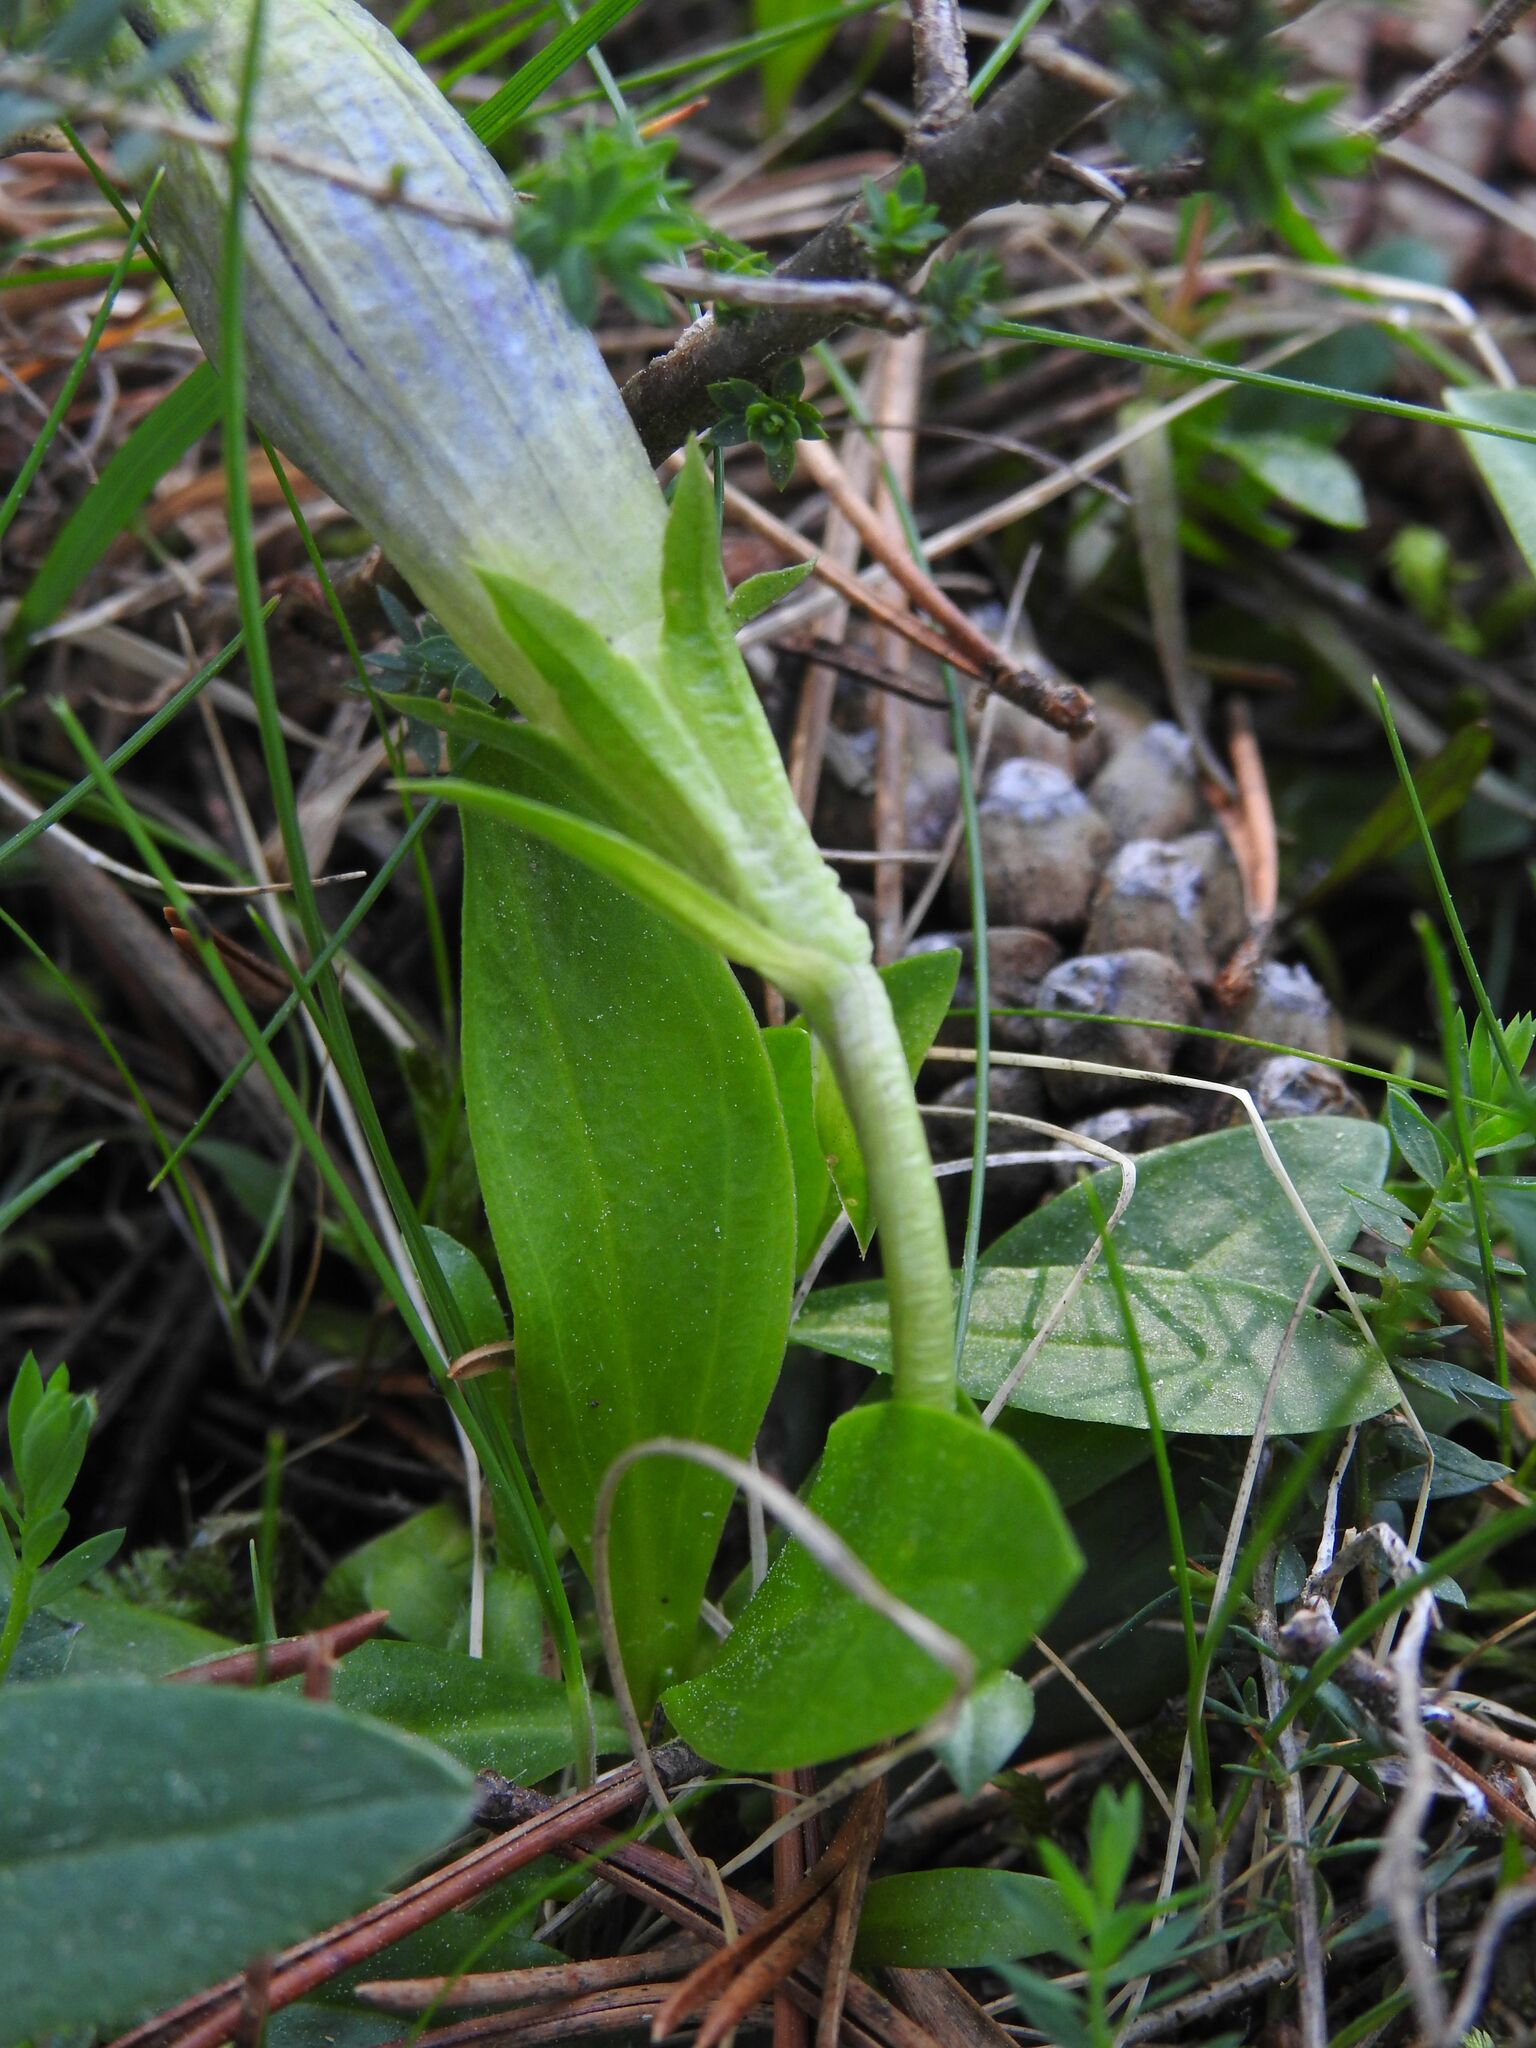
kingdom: Plantae
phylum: Tracheophyta
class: Magnoliopsida
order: Gentianales
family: Gentianaceae
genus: Gentiana
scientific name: Gentiana acaulis
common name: Trumpet gentian
